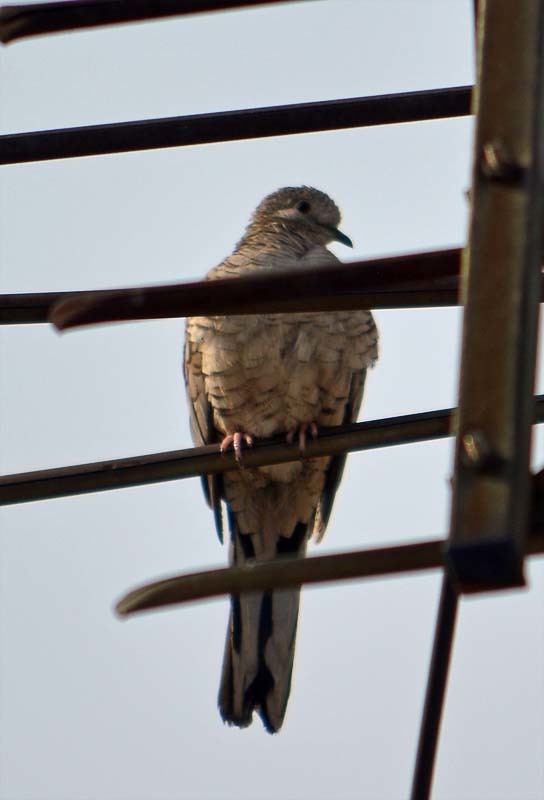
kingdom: Animalia
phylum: Chordata
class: Aves
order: Columbiformes
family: Columbidae
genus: Columbina
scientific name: Columbina inca
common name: Inca dove
